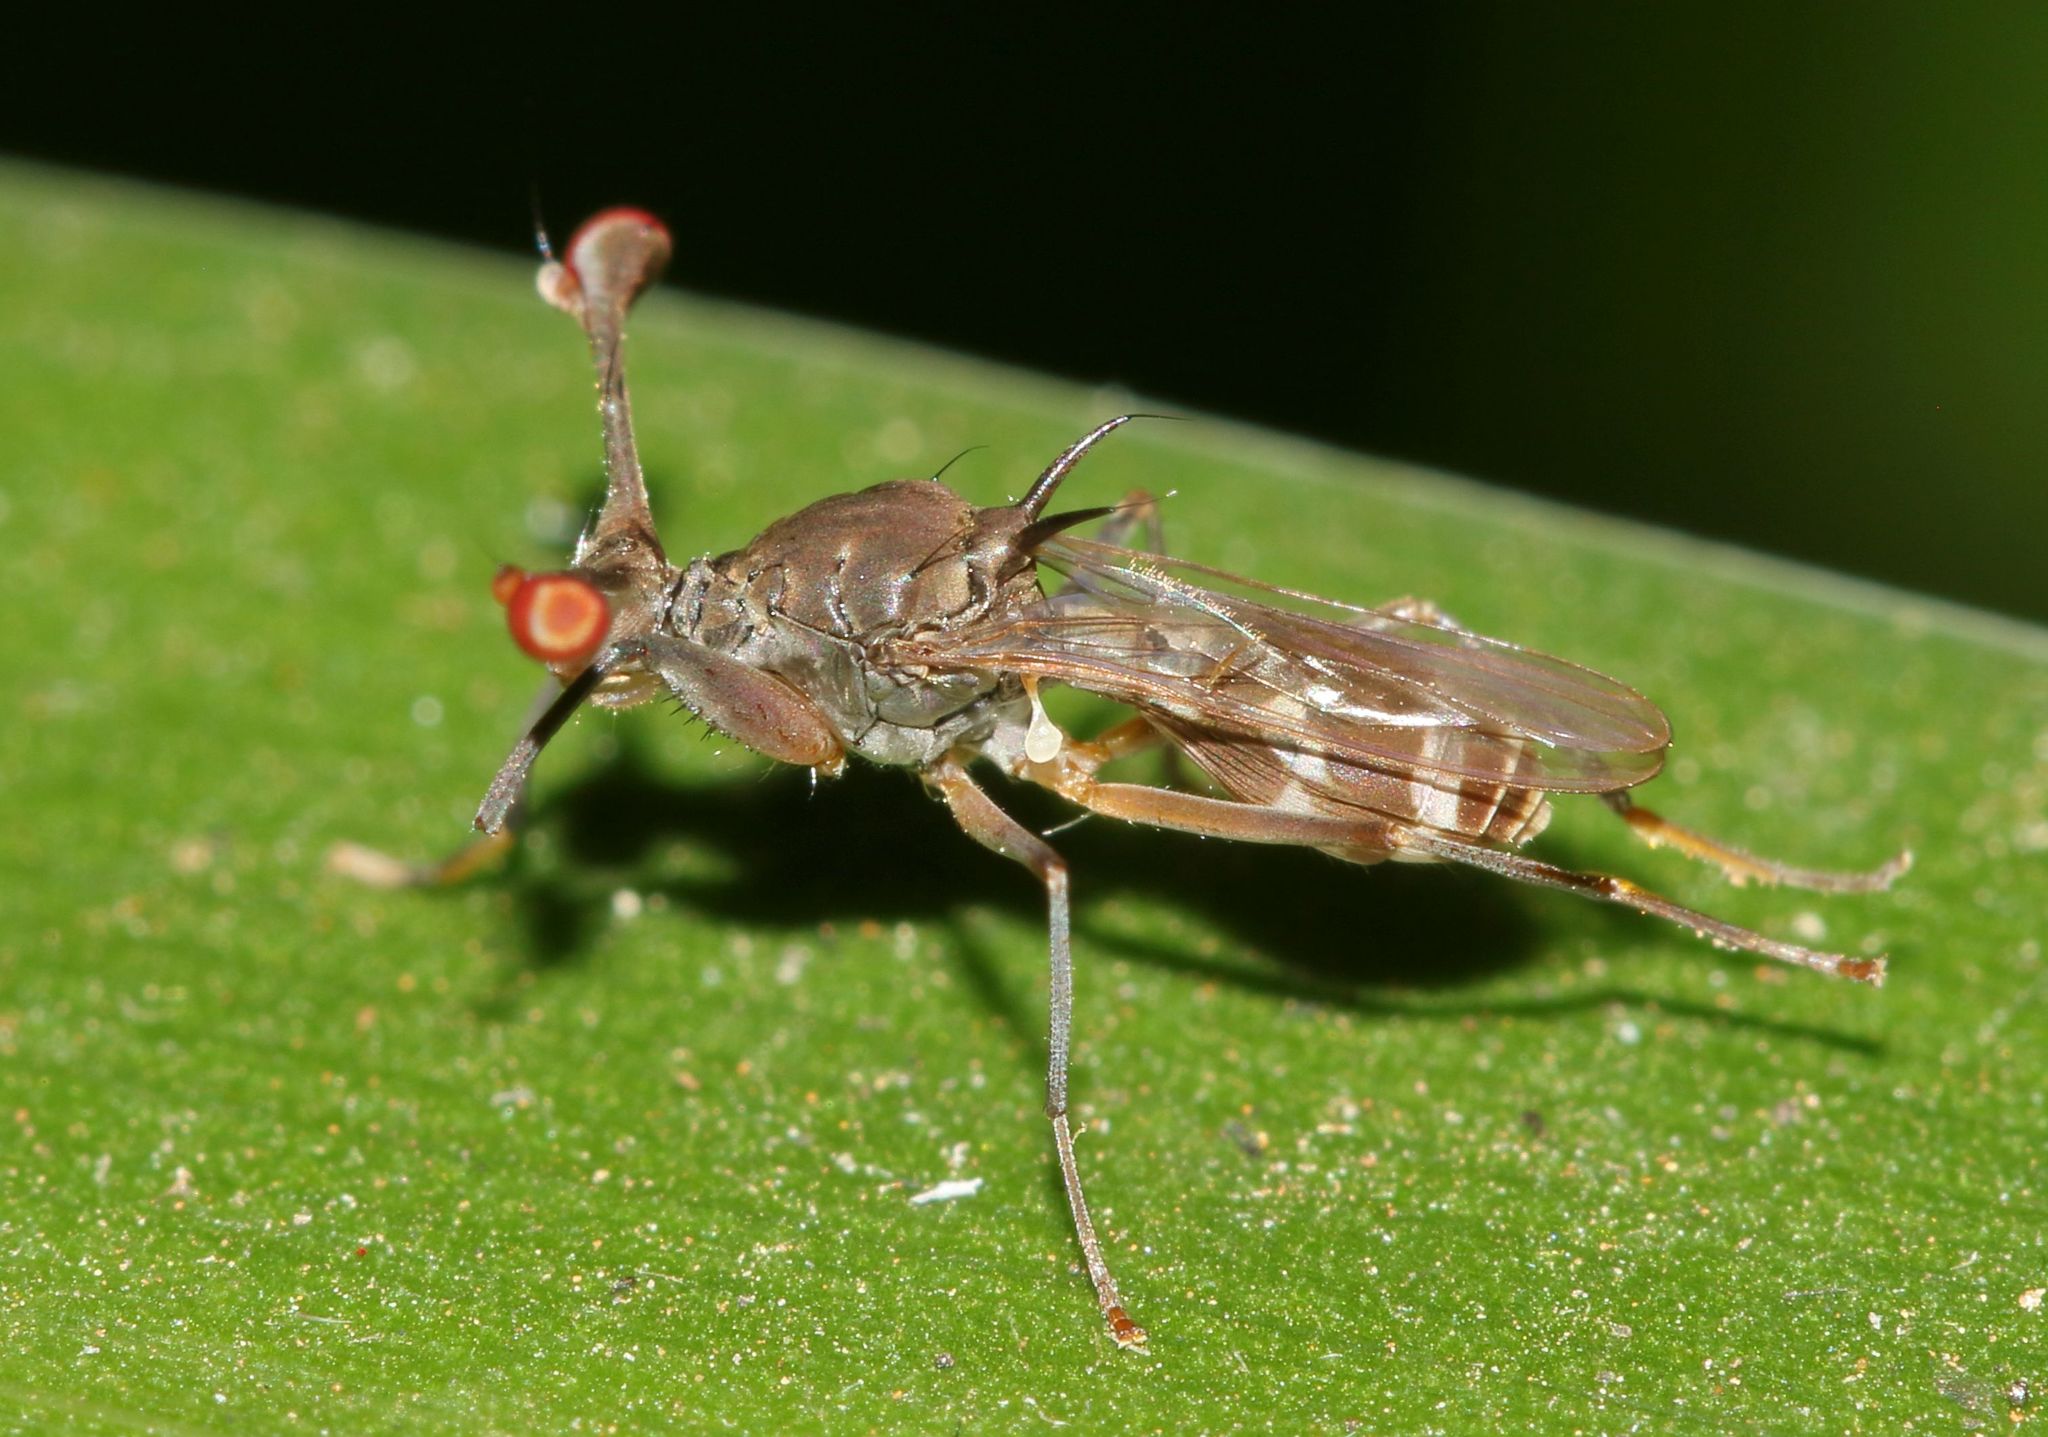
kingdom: Animalia
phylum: Arthropoda
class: Insecta
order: Diptera
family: Diopsidae
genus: Diasemopsis
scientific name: Diasemopsis signata
